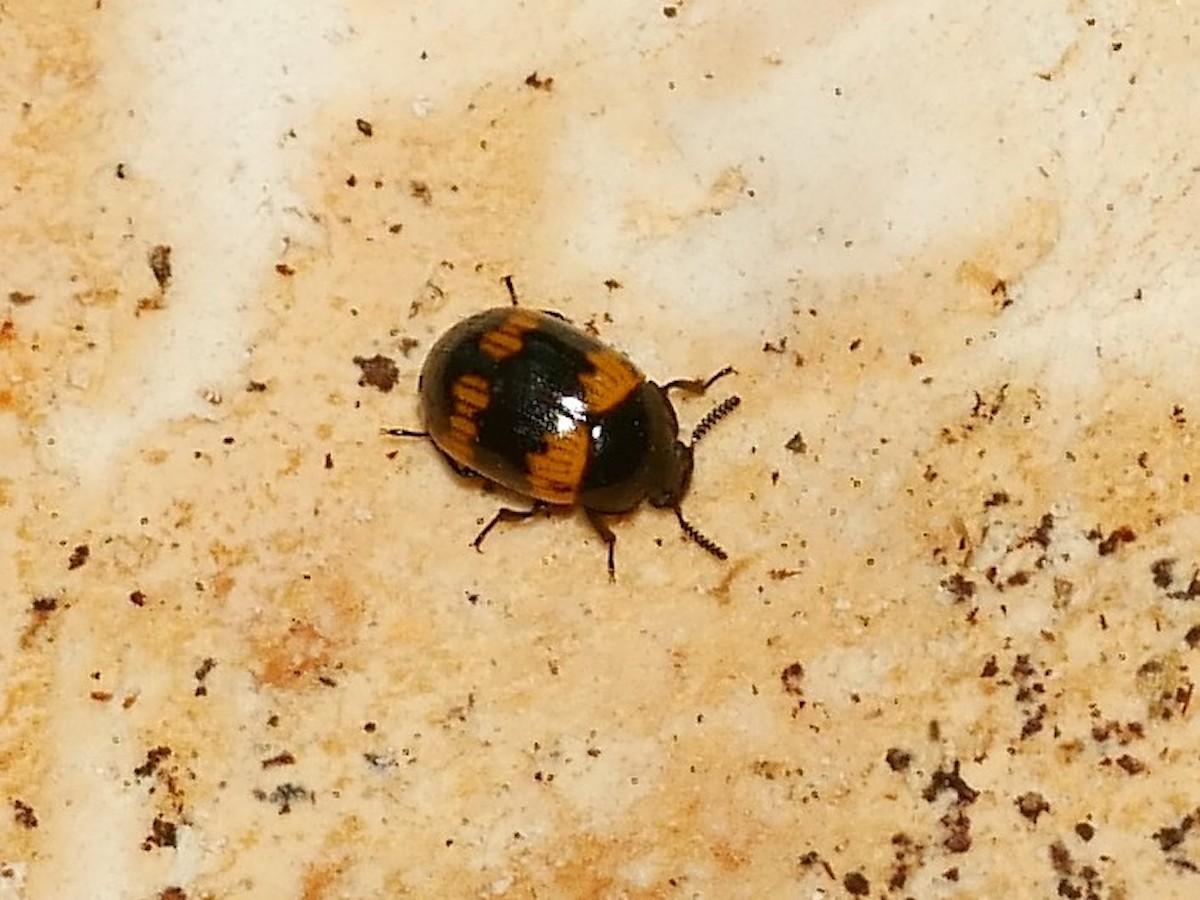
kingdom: Animalia
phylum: Arthropoda
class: Insecta
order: Coleoptera
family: Tenebrionidae
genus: Diaperis
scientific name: Diaperis boleti
